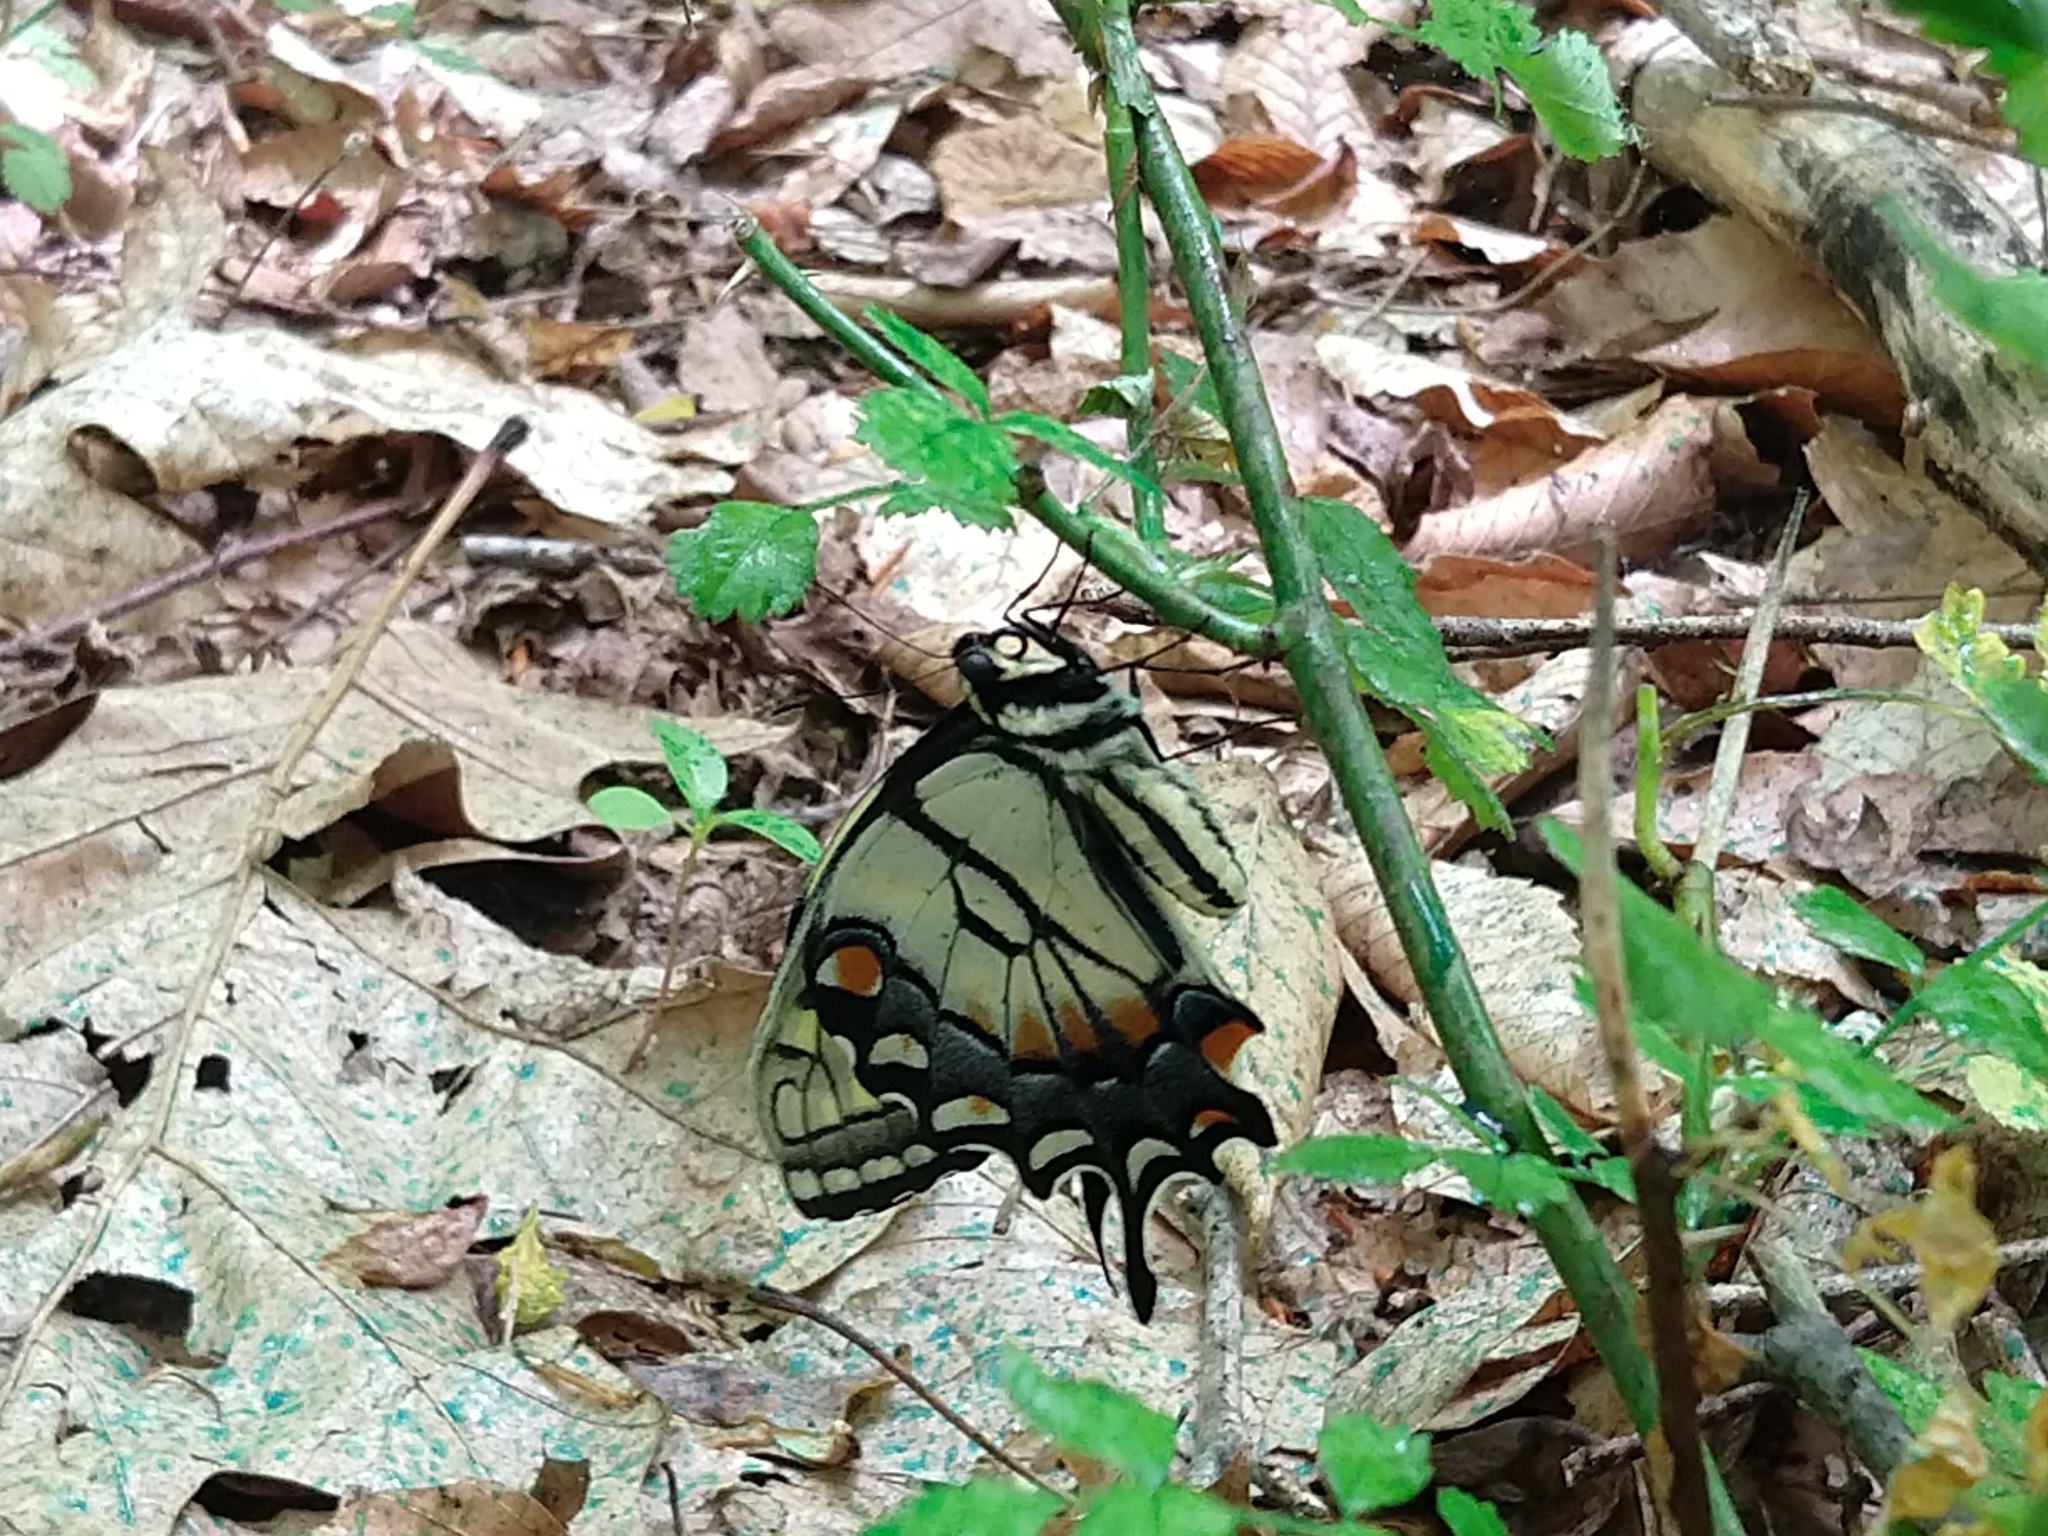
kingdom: Animalia
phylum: Arthropoda
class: Insecta
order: Lepidoptera
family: Papilionidae
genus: Papilio
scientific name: Papilio glaucus
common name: Tiger swallowtail
